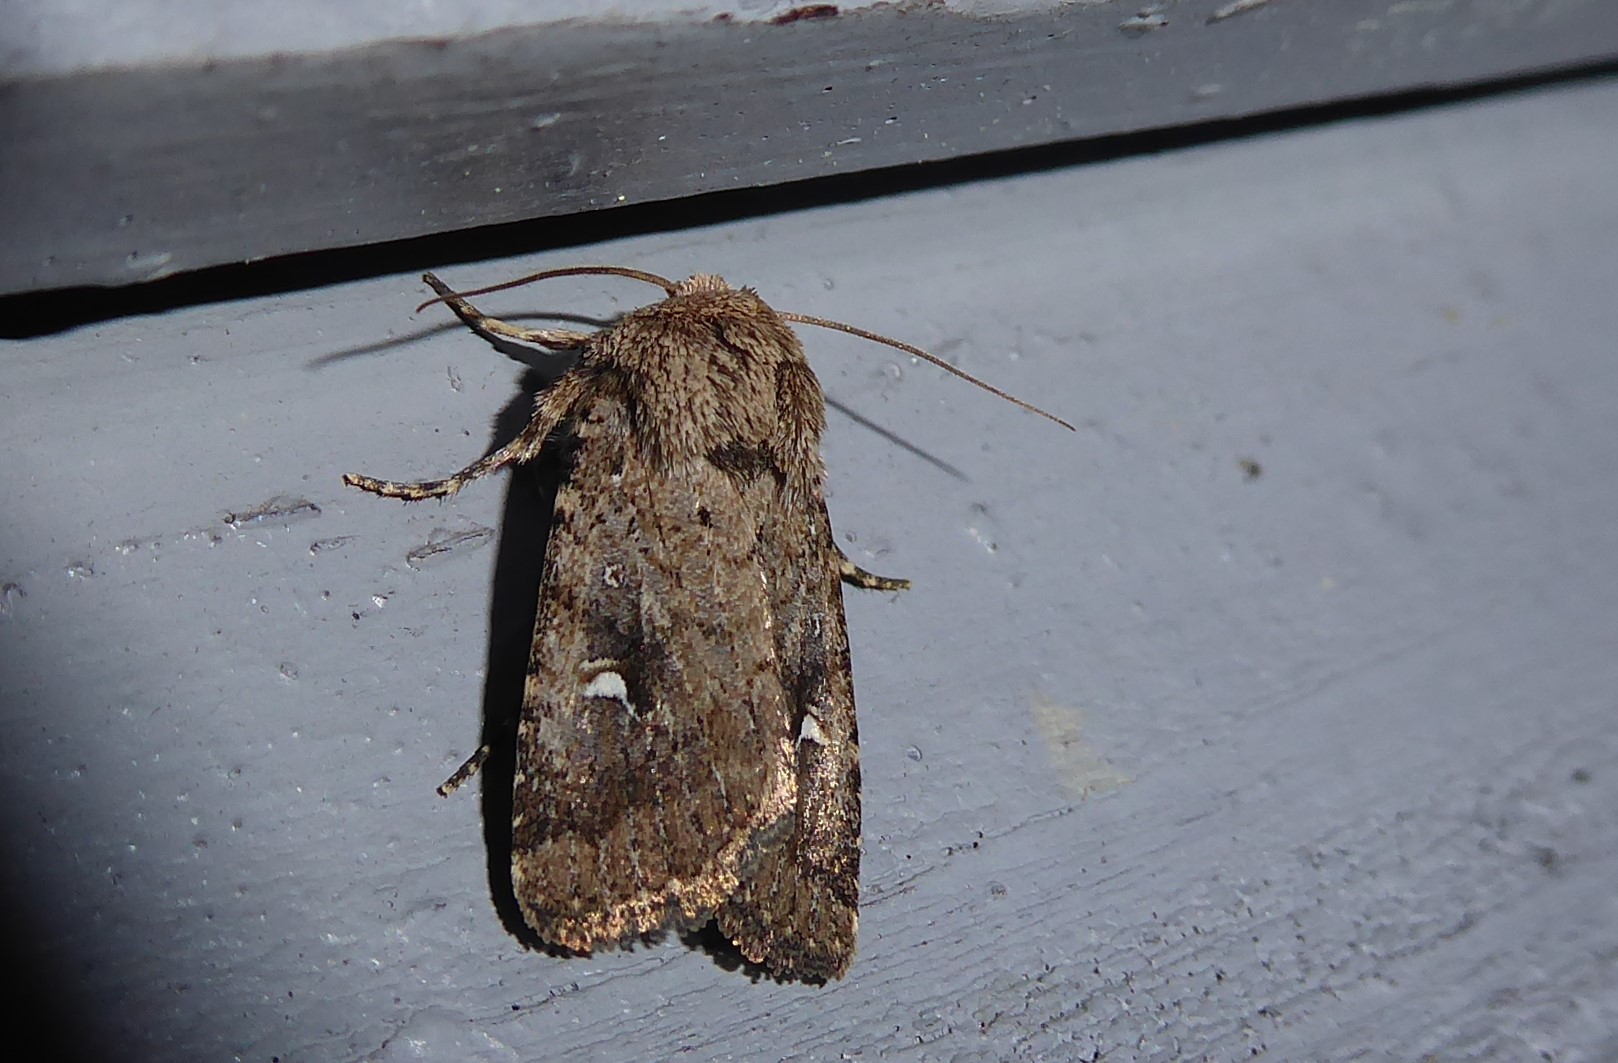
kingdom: Animalia
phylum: Arthropoda
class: Insecta
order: Lepidoptera
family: Noctuidae
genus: Proteuxoa
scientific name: Proteuxoa tetronycha
